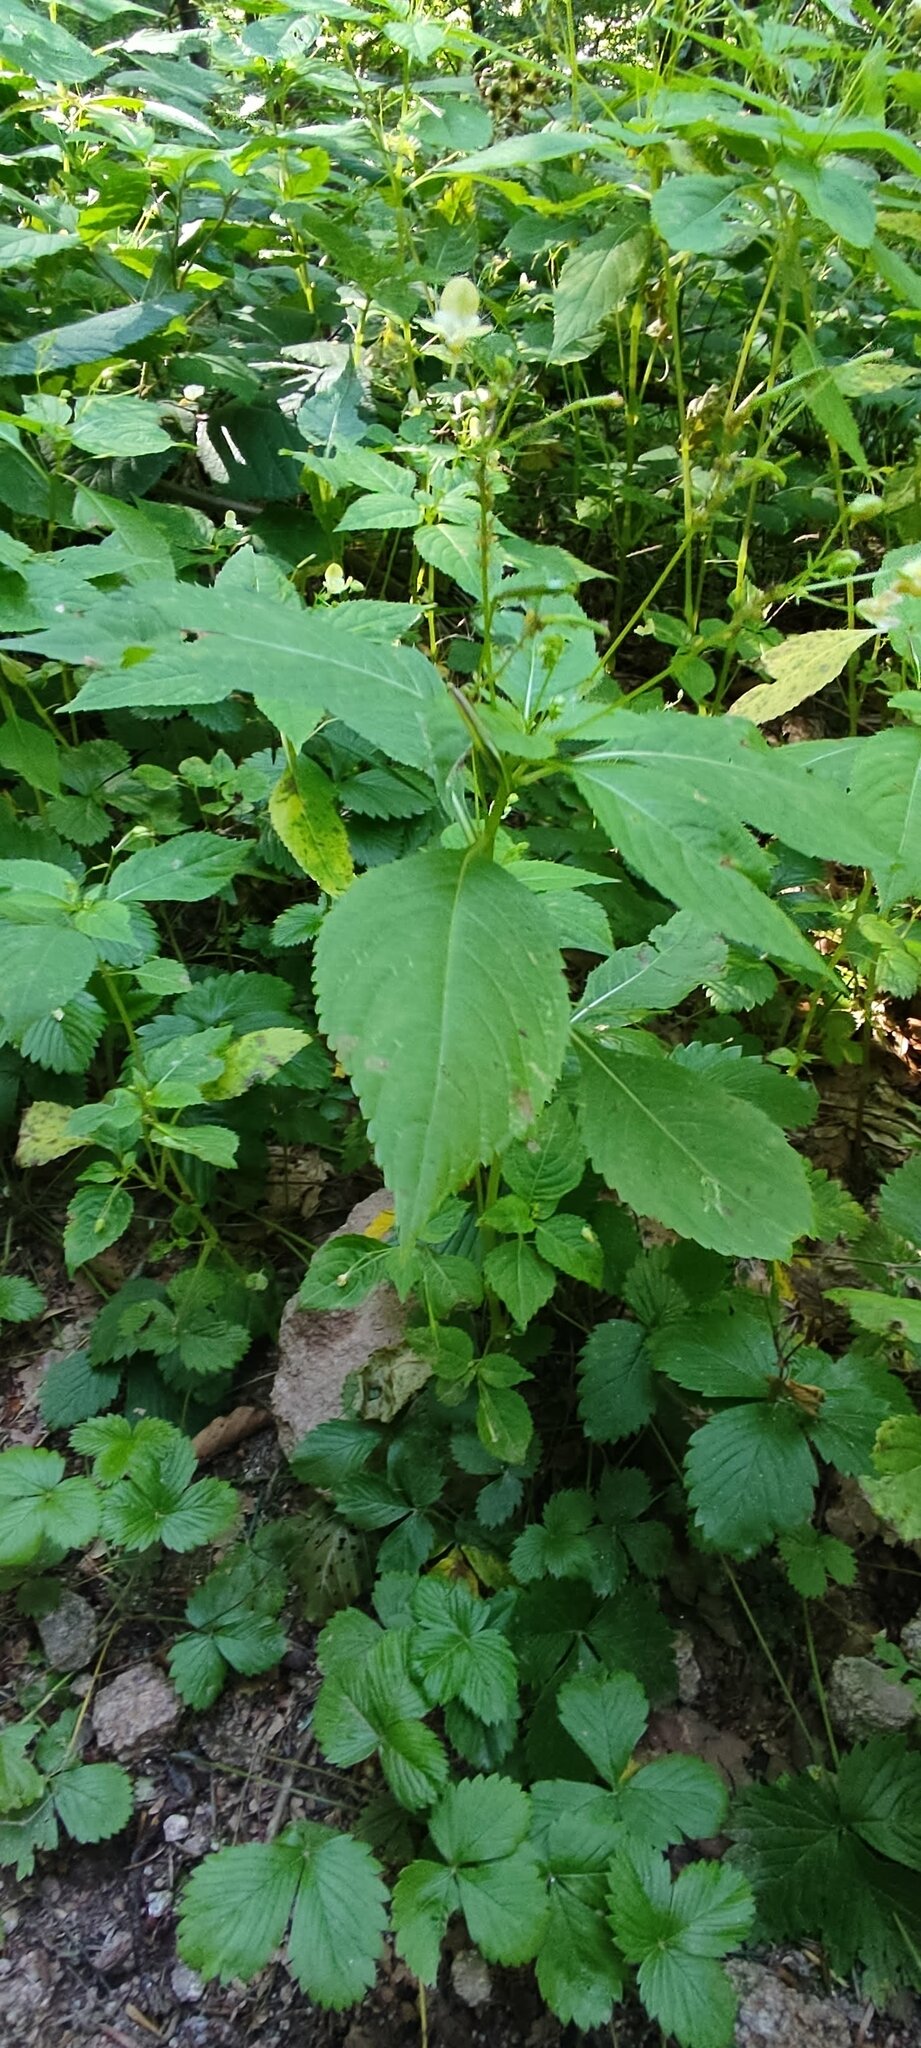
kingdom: Plantae
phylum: Tracheophyta
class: Magnoliopsida
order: Ericales
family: Balsaminaceae
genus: Impatiens
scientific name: Impatiens parviflora
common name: Small balsam
